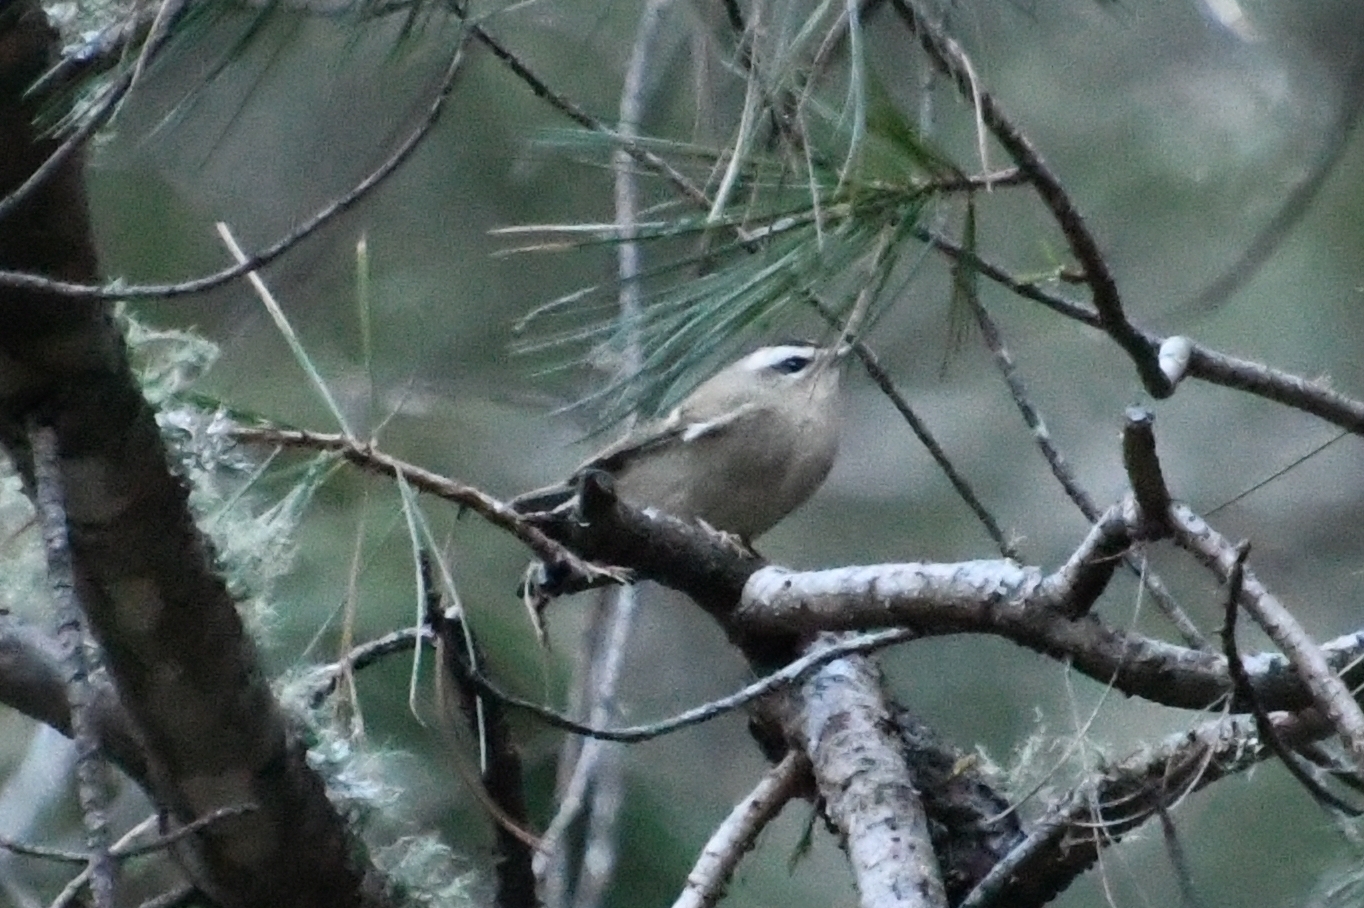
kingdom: Animalia
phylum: Chordata
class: Aves
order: Passeriformes
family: Regulidae
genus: Regulus
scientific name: Regulus satrapa
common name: Golden-crowned kinglet
